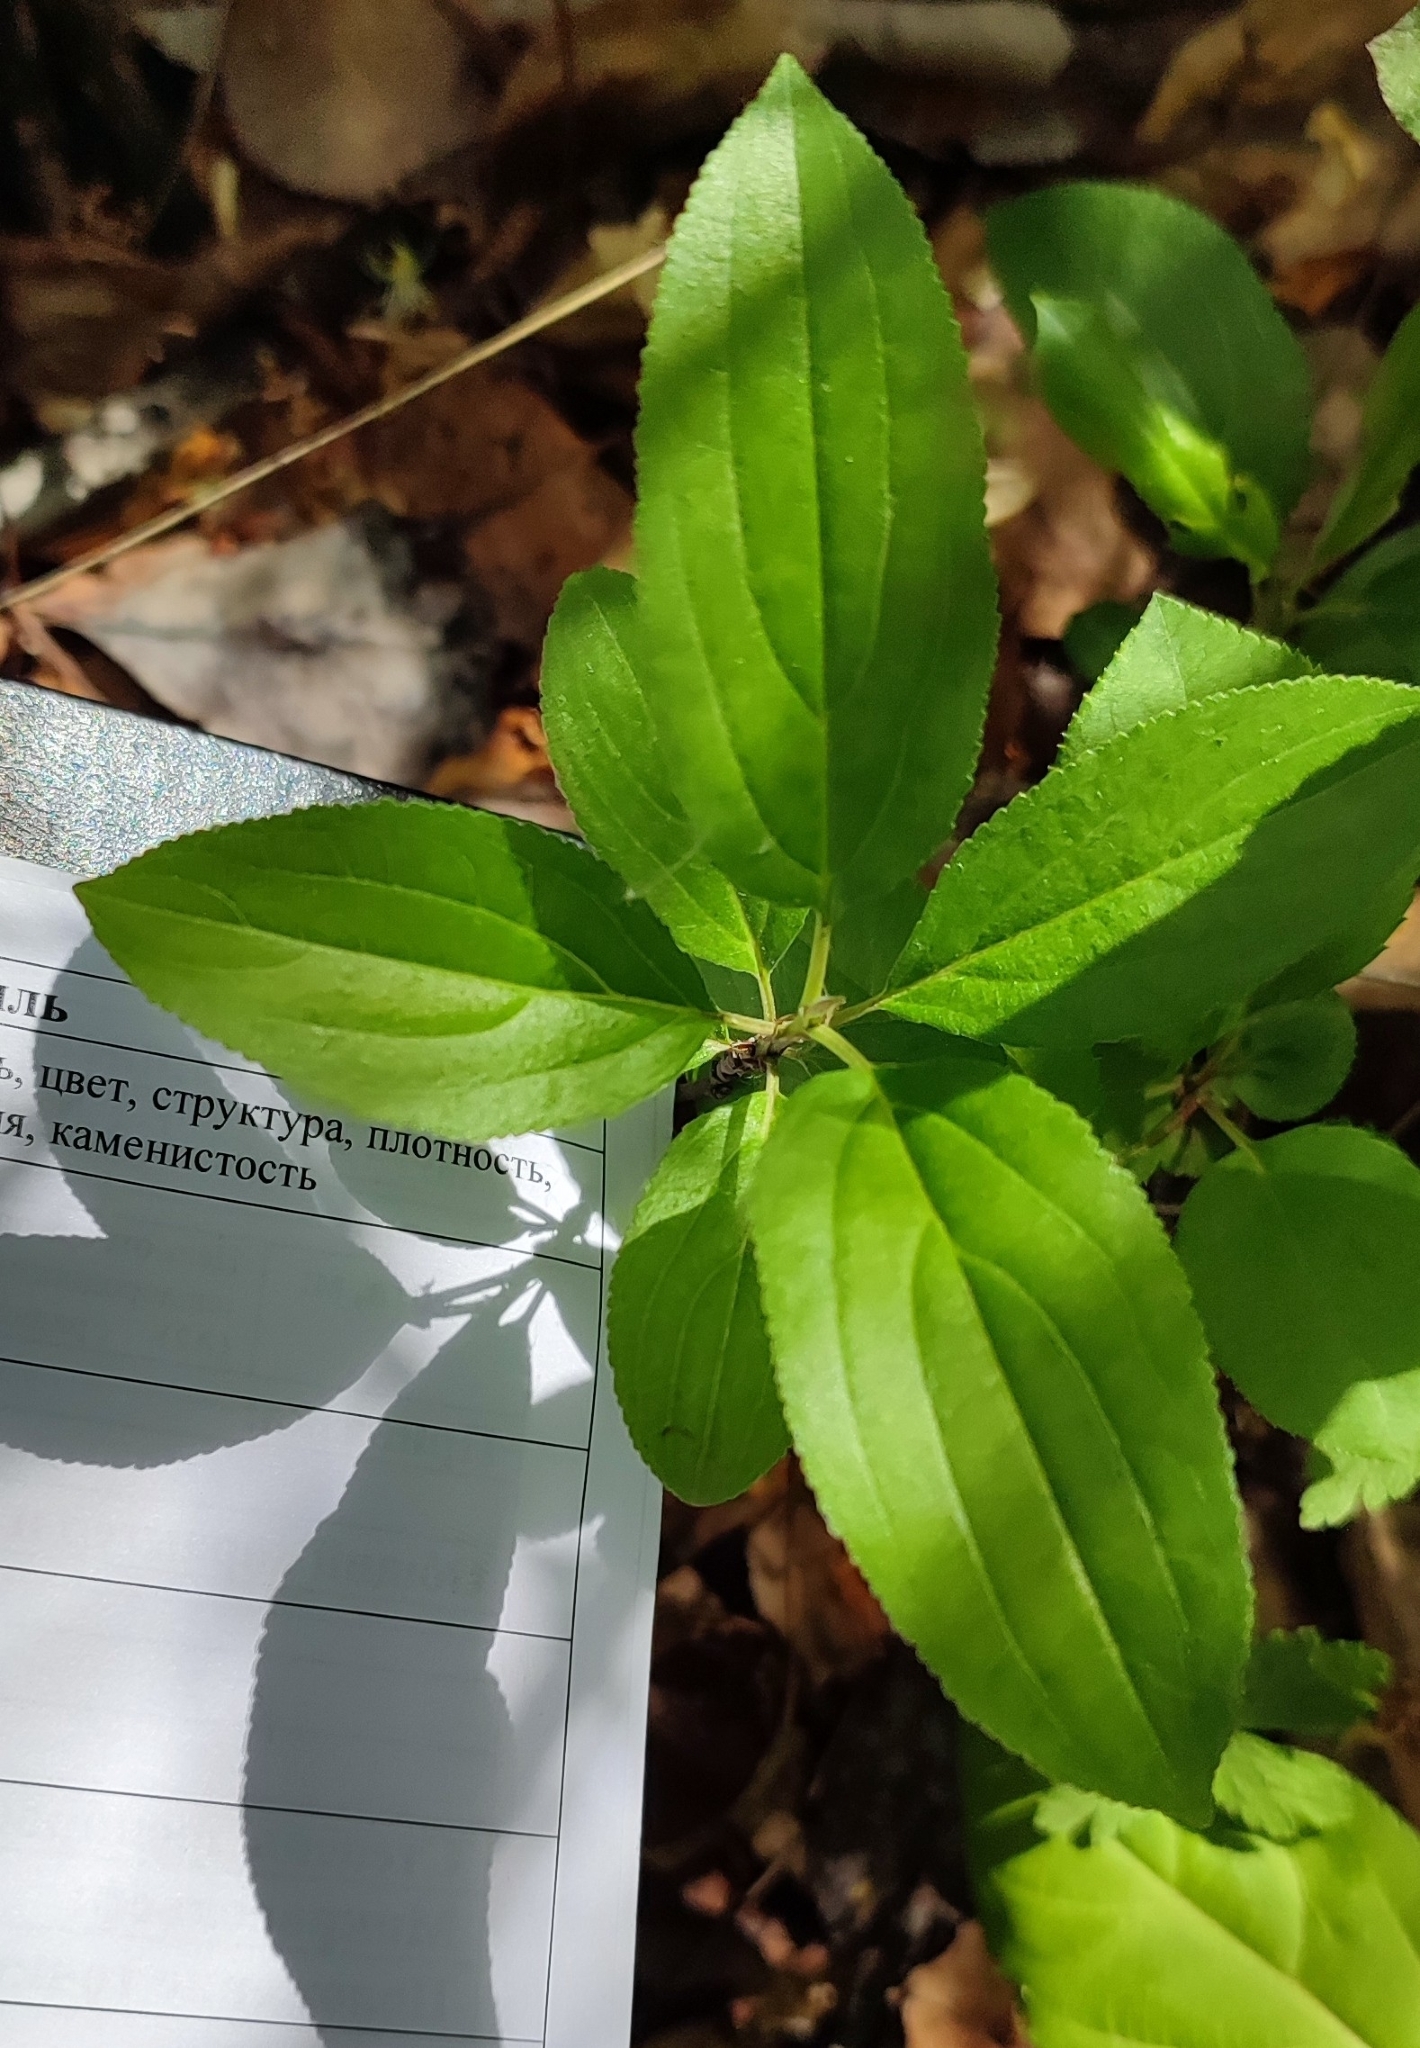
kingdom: Plantae
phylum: Tracheophyta
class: Magnoliopsida
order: Rosales
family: Rhamnaceae
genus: Rhamnus
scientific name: Rhamnus cathartica
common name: Common buckthorn
